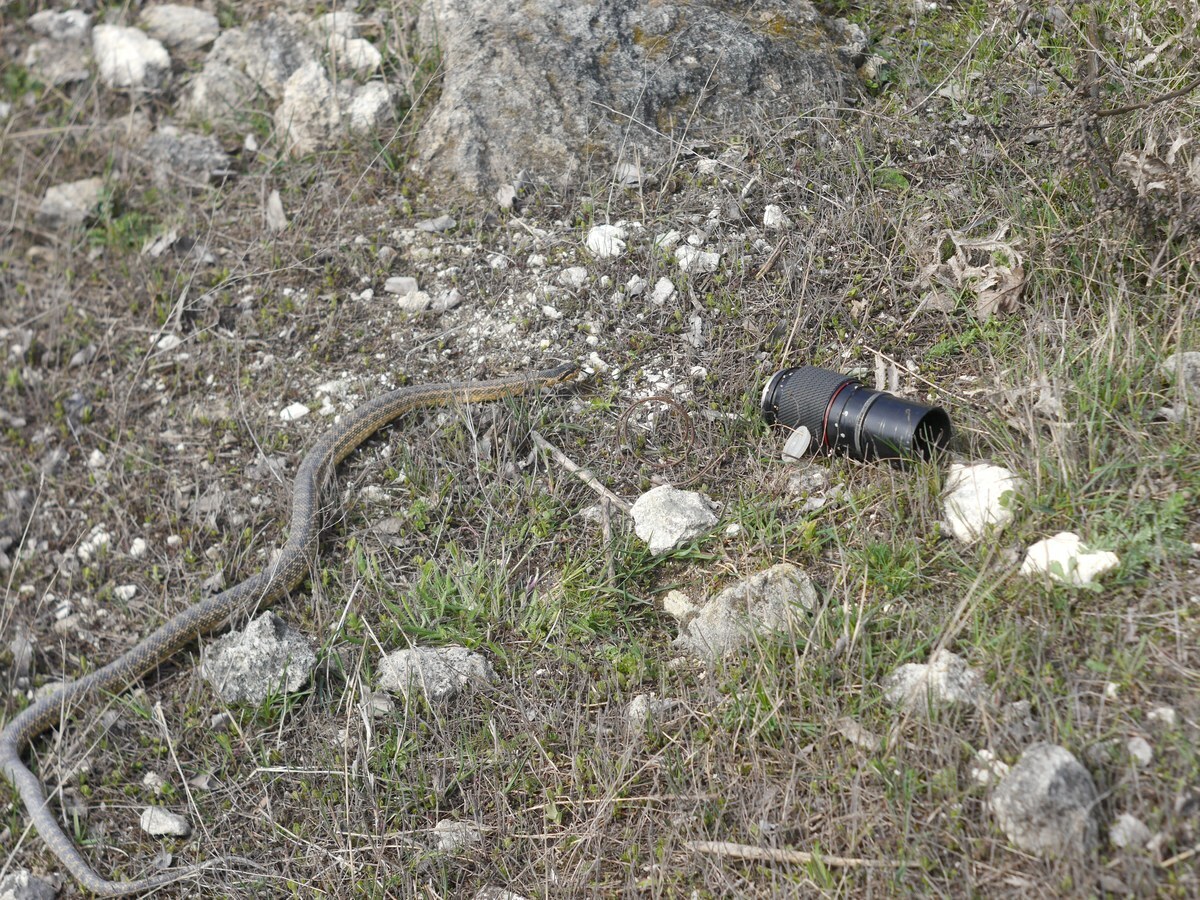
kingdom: Animalia
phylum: Chordata
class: Squamata
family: Colubridae
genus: Elaphe
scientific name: Elaphe sauromates
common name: Eastern four-lined ratsnake
